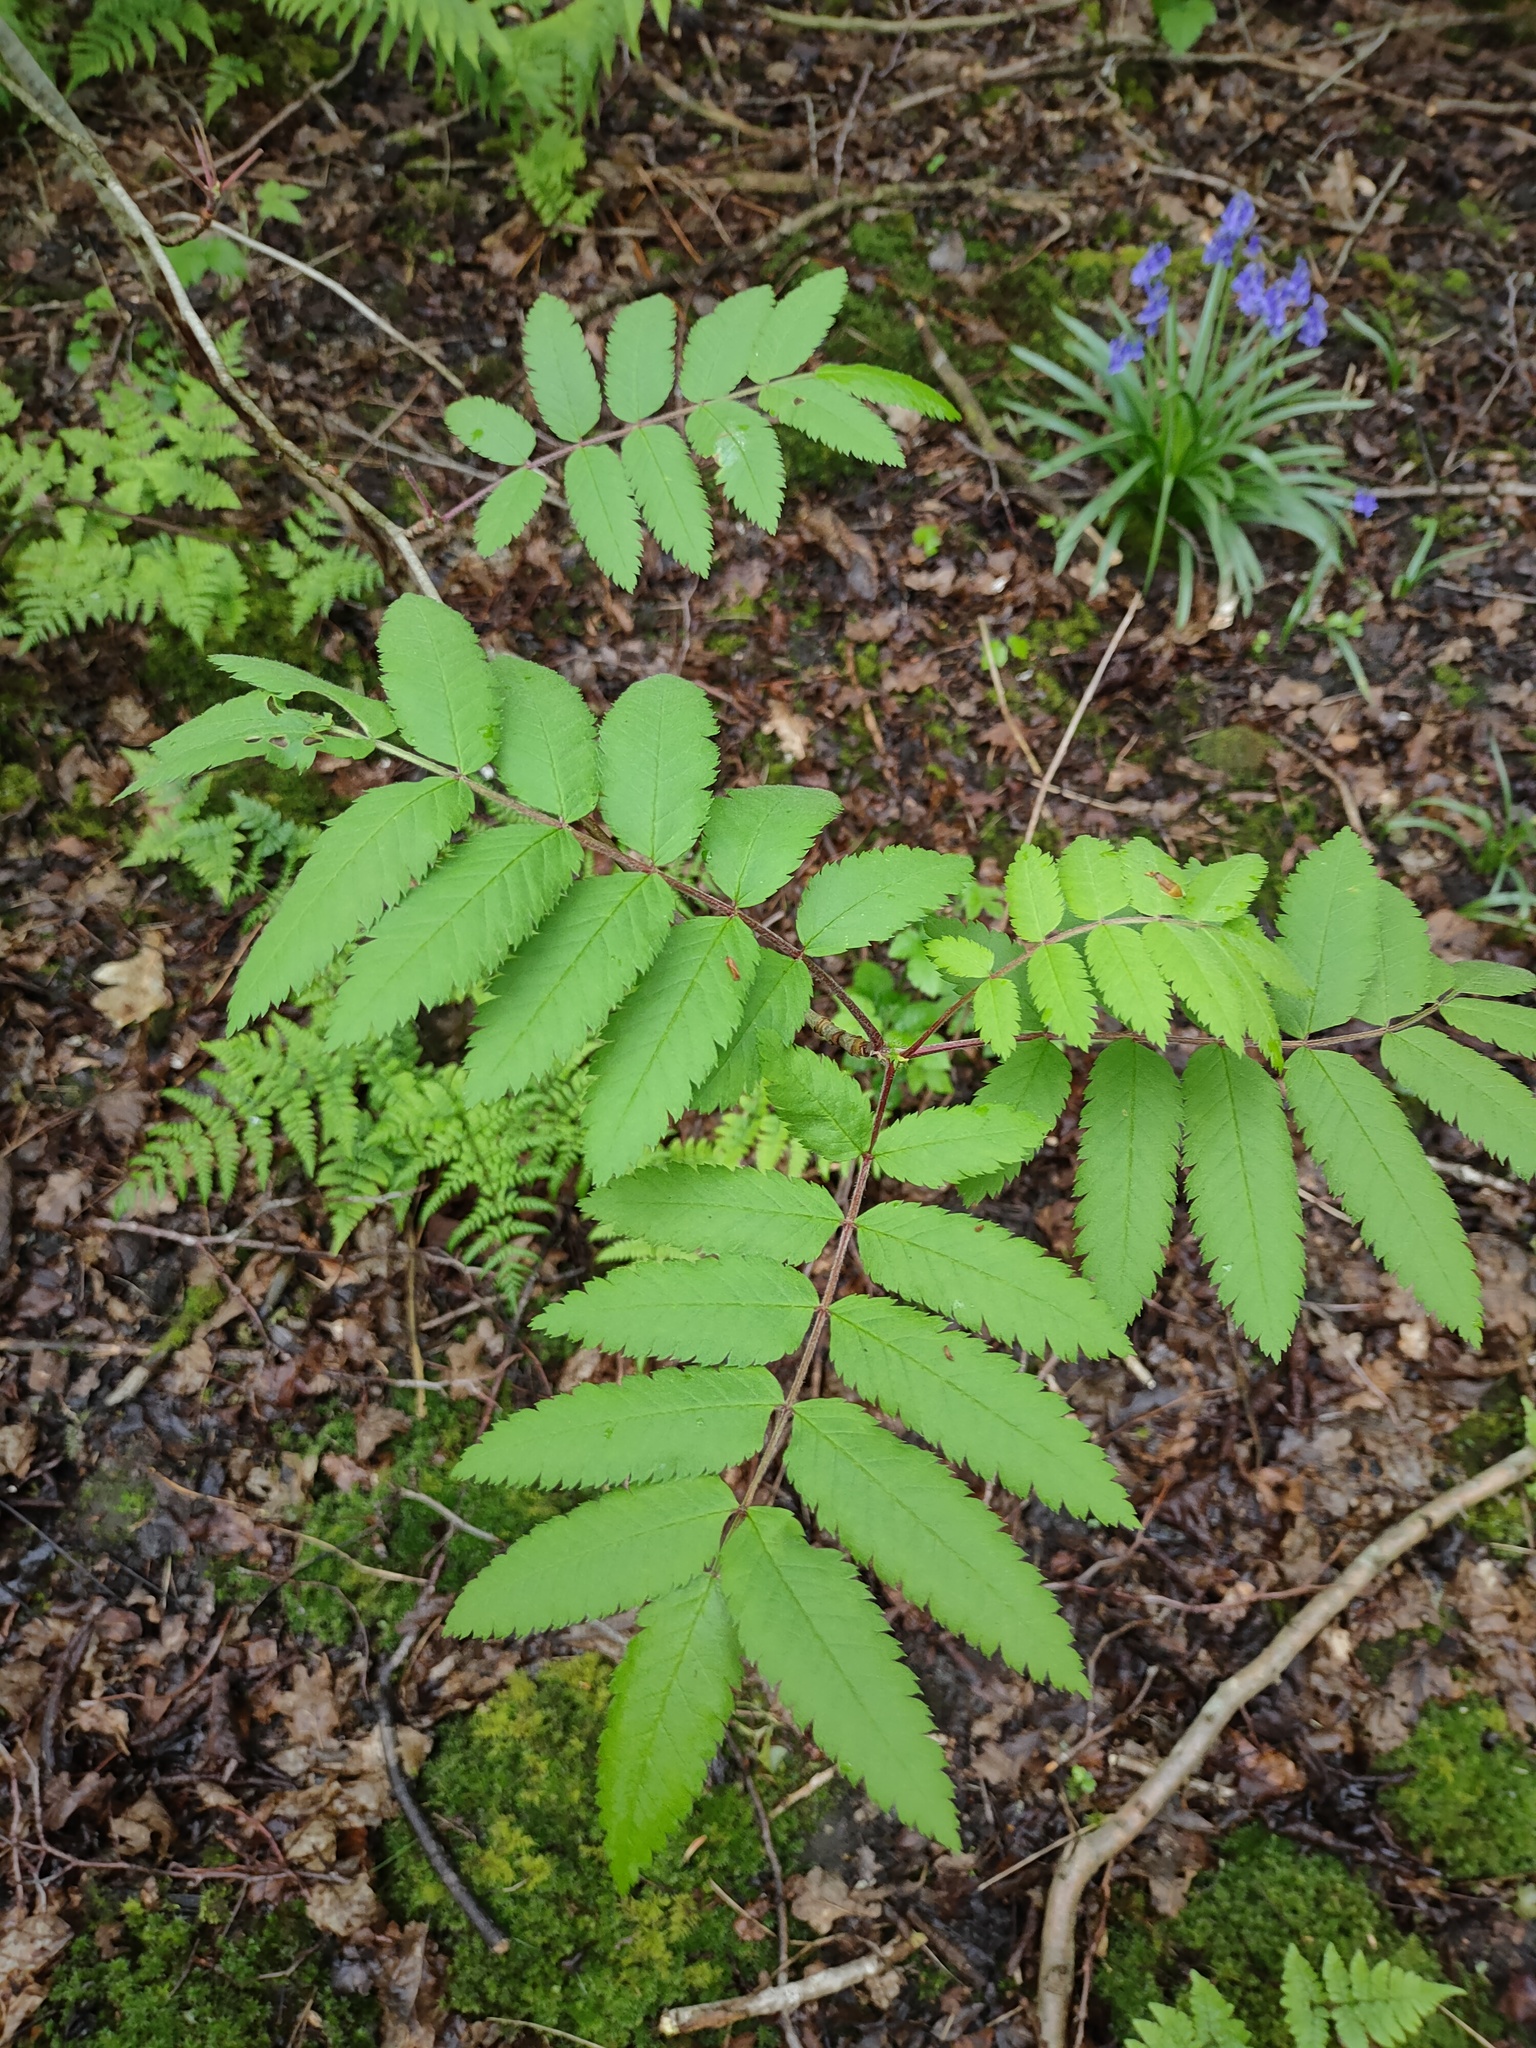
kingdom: Plantae
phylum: Tracheophyta
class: Magnoliopsida
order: Rosales
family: Rosaceae
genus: Sorbus
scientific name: Sorbus aucuparia
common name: Rowan
